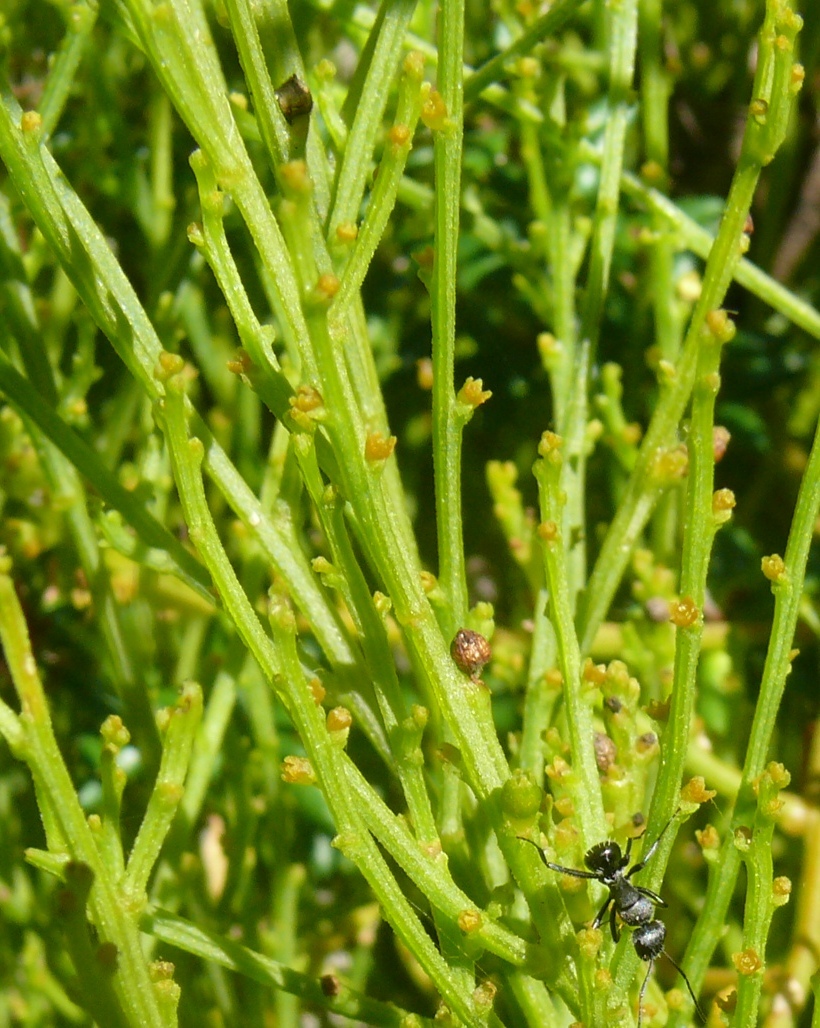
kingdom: Plantae
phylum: Tracheophyta
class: Magnoliopsida
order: Santalales
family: Thesiaceae
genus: Thesium
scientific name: Thesium confusum
